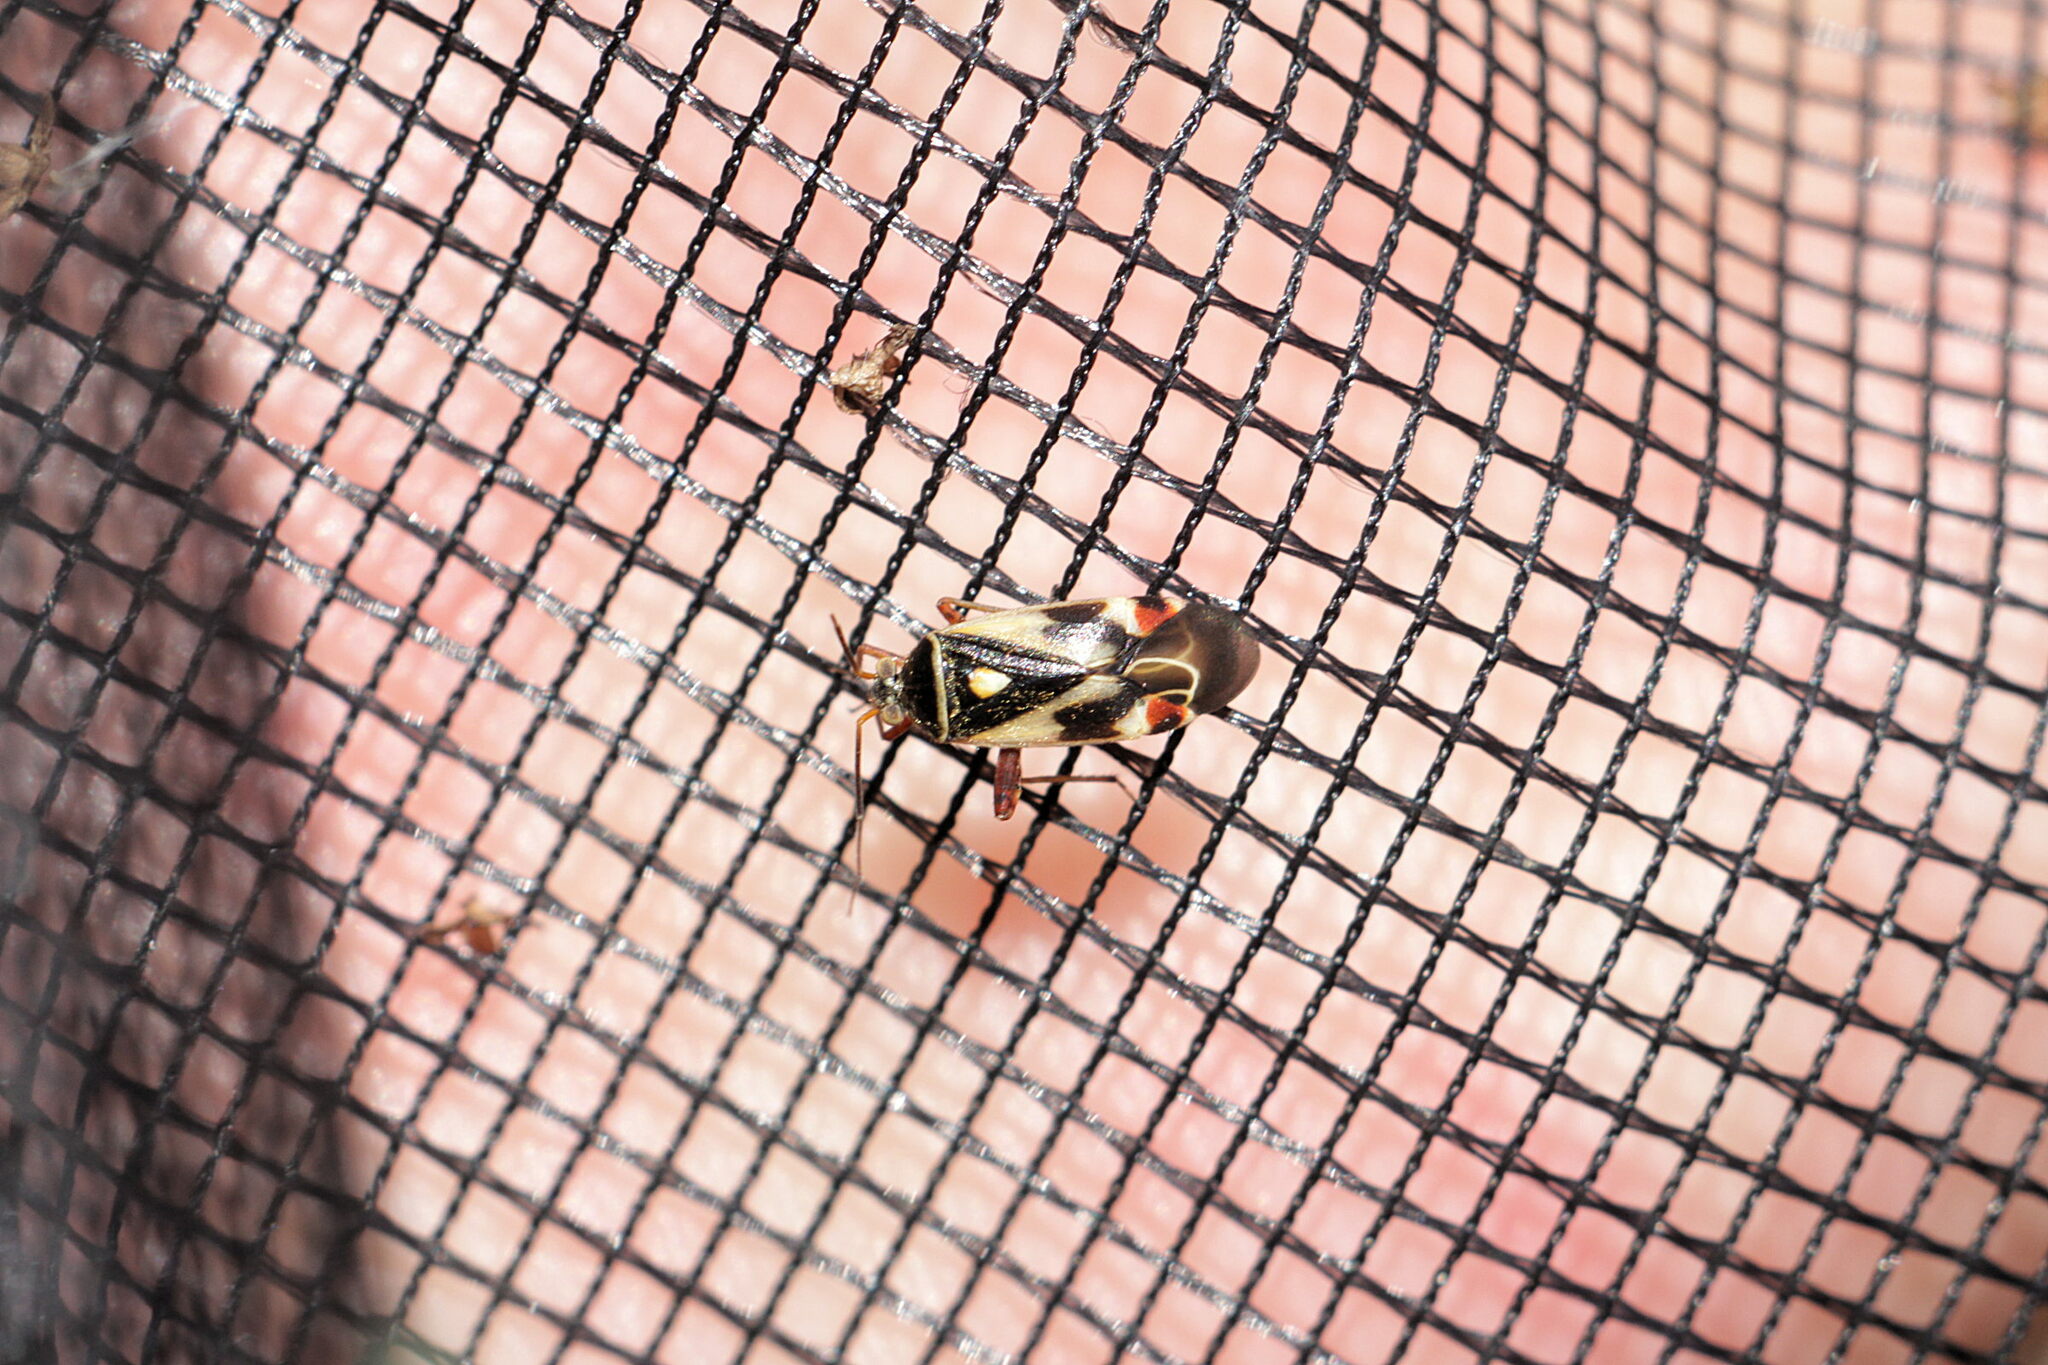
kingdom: Animalia
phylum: Arthropoda
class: Insecta
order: Hemiptera
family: Miridae
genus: Polymerus
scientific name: Polymerus unifasciatus
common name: Plant bug
